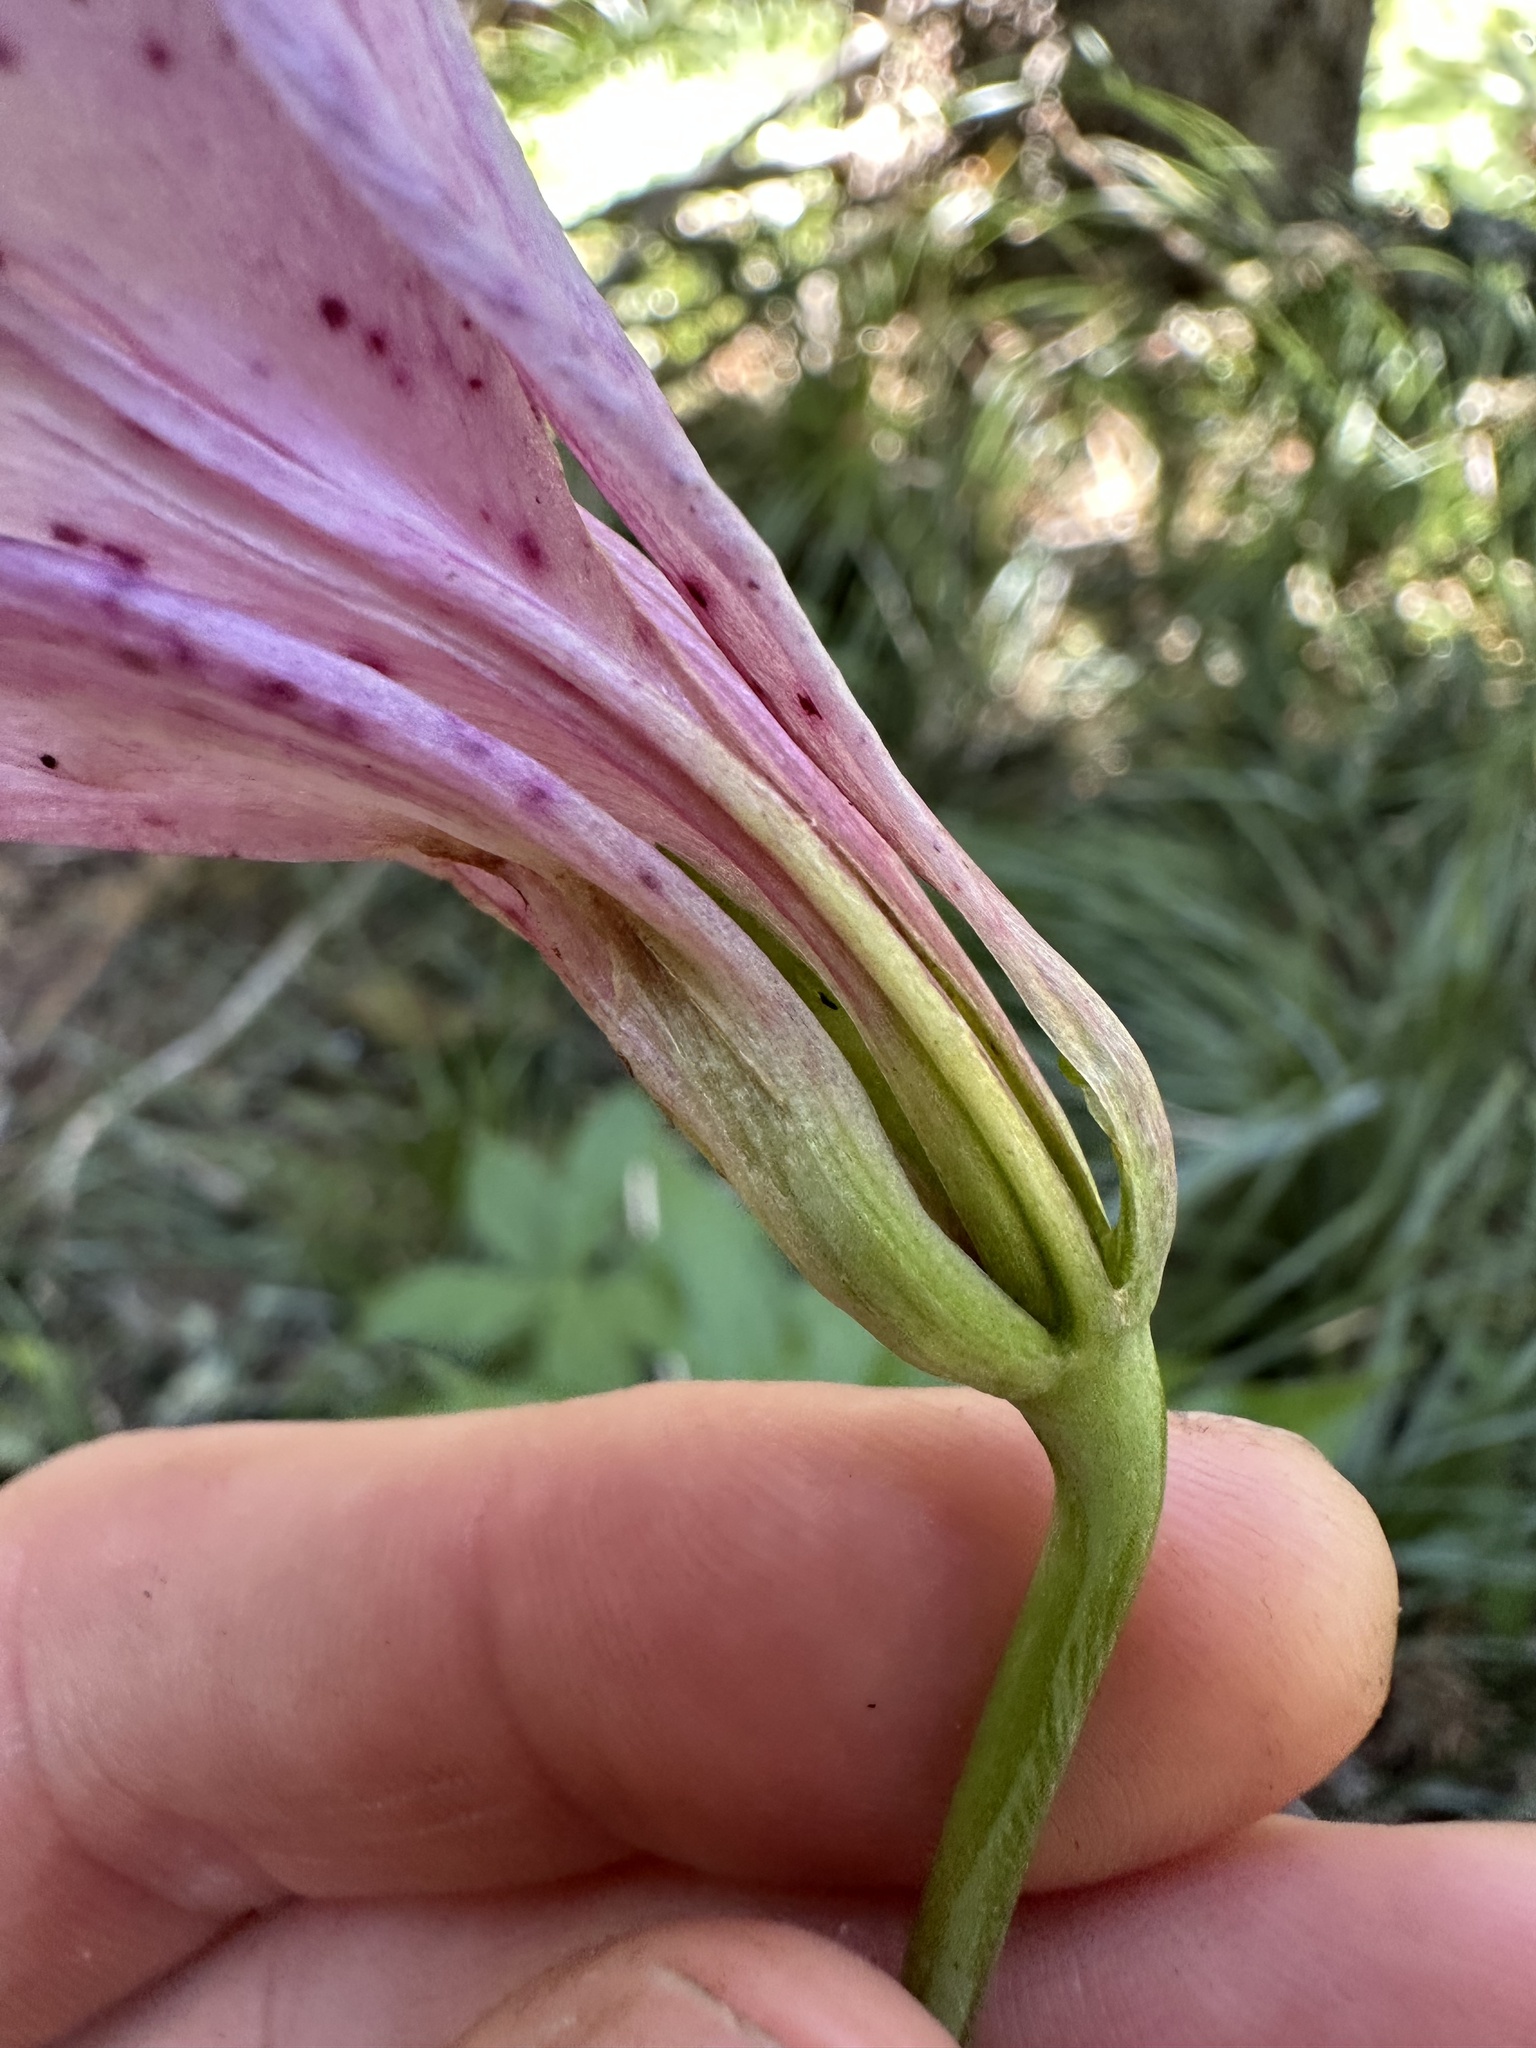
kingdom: Plantae
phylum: Tracheophyta
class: Liliopsida
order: Liliales
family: Liliaceae
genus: Lilium
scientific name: Lilium washingtonianum
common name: Washington lily
